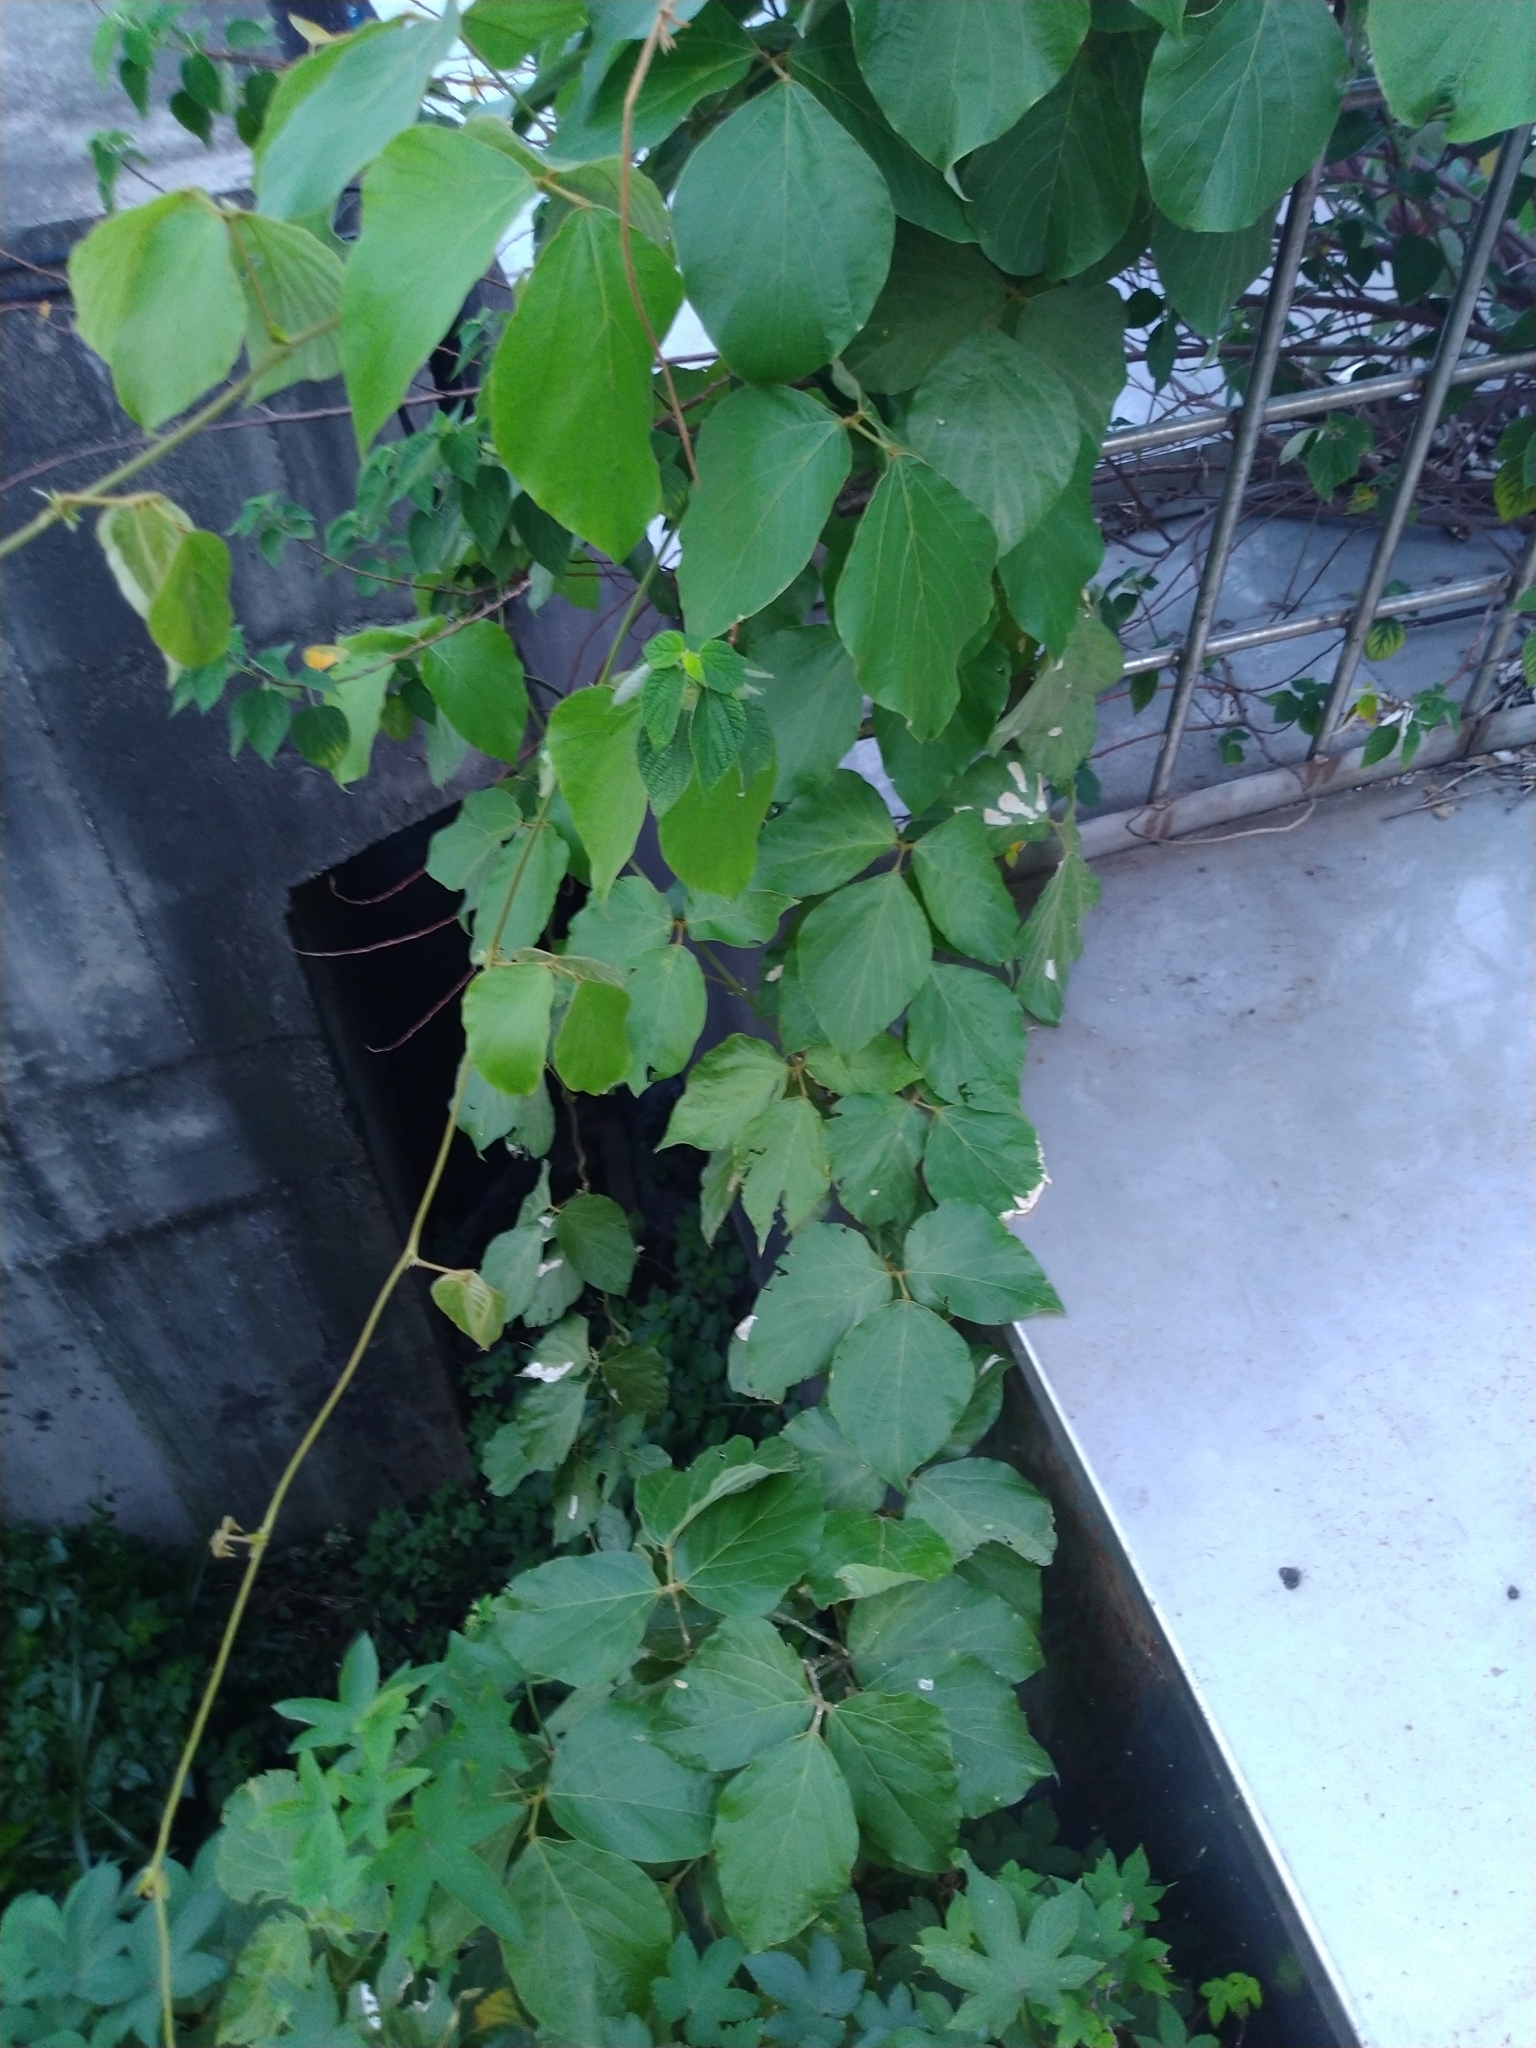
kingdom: Plantae
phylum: Tracheophyta
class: Magnoliopsida
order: Fabales
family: Fabaceae
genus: Pueraria
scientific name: Pueraria montana
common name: Kudzu
